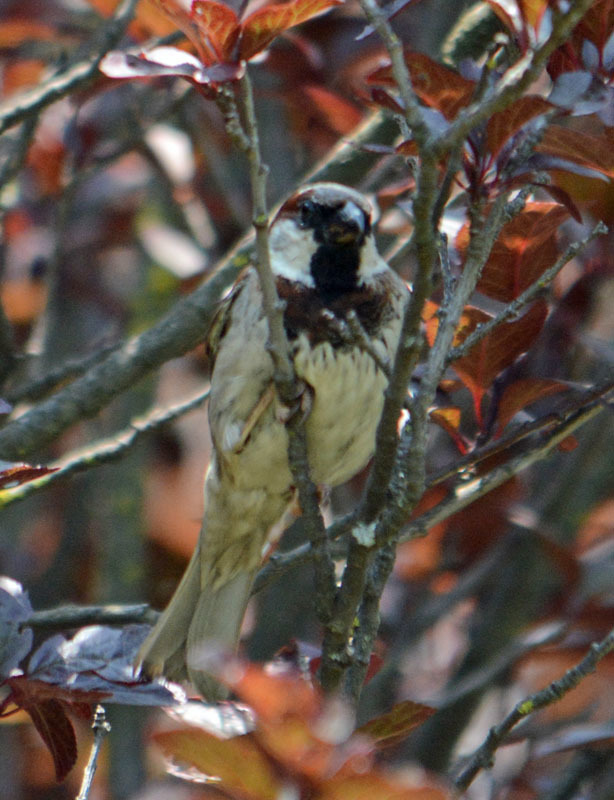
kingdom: Animalia
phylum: Chordata
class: Aves
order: Passeriformes
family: Passeridae
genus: Passer
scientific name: Passer domesticus
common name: House sparrow
